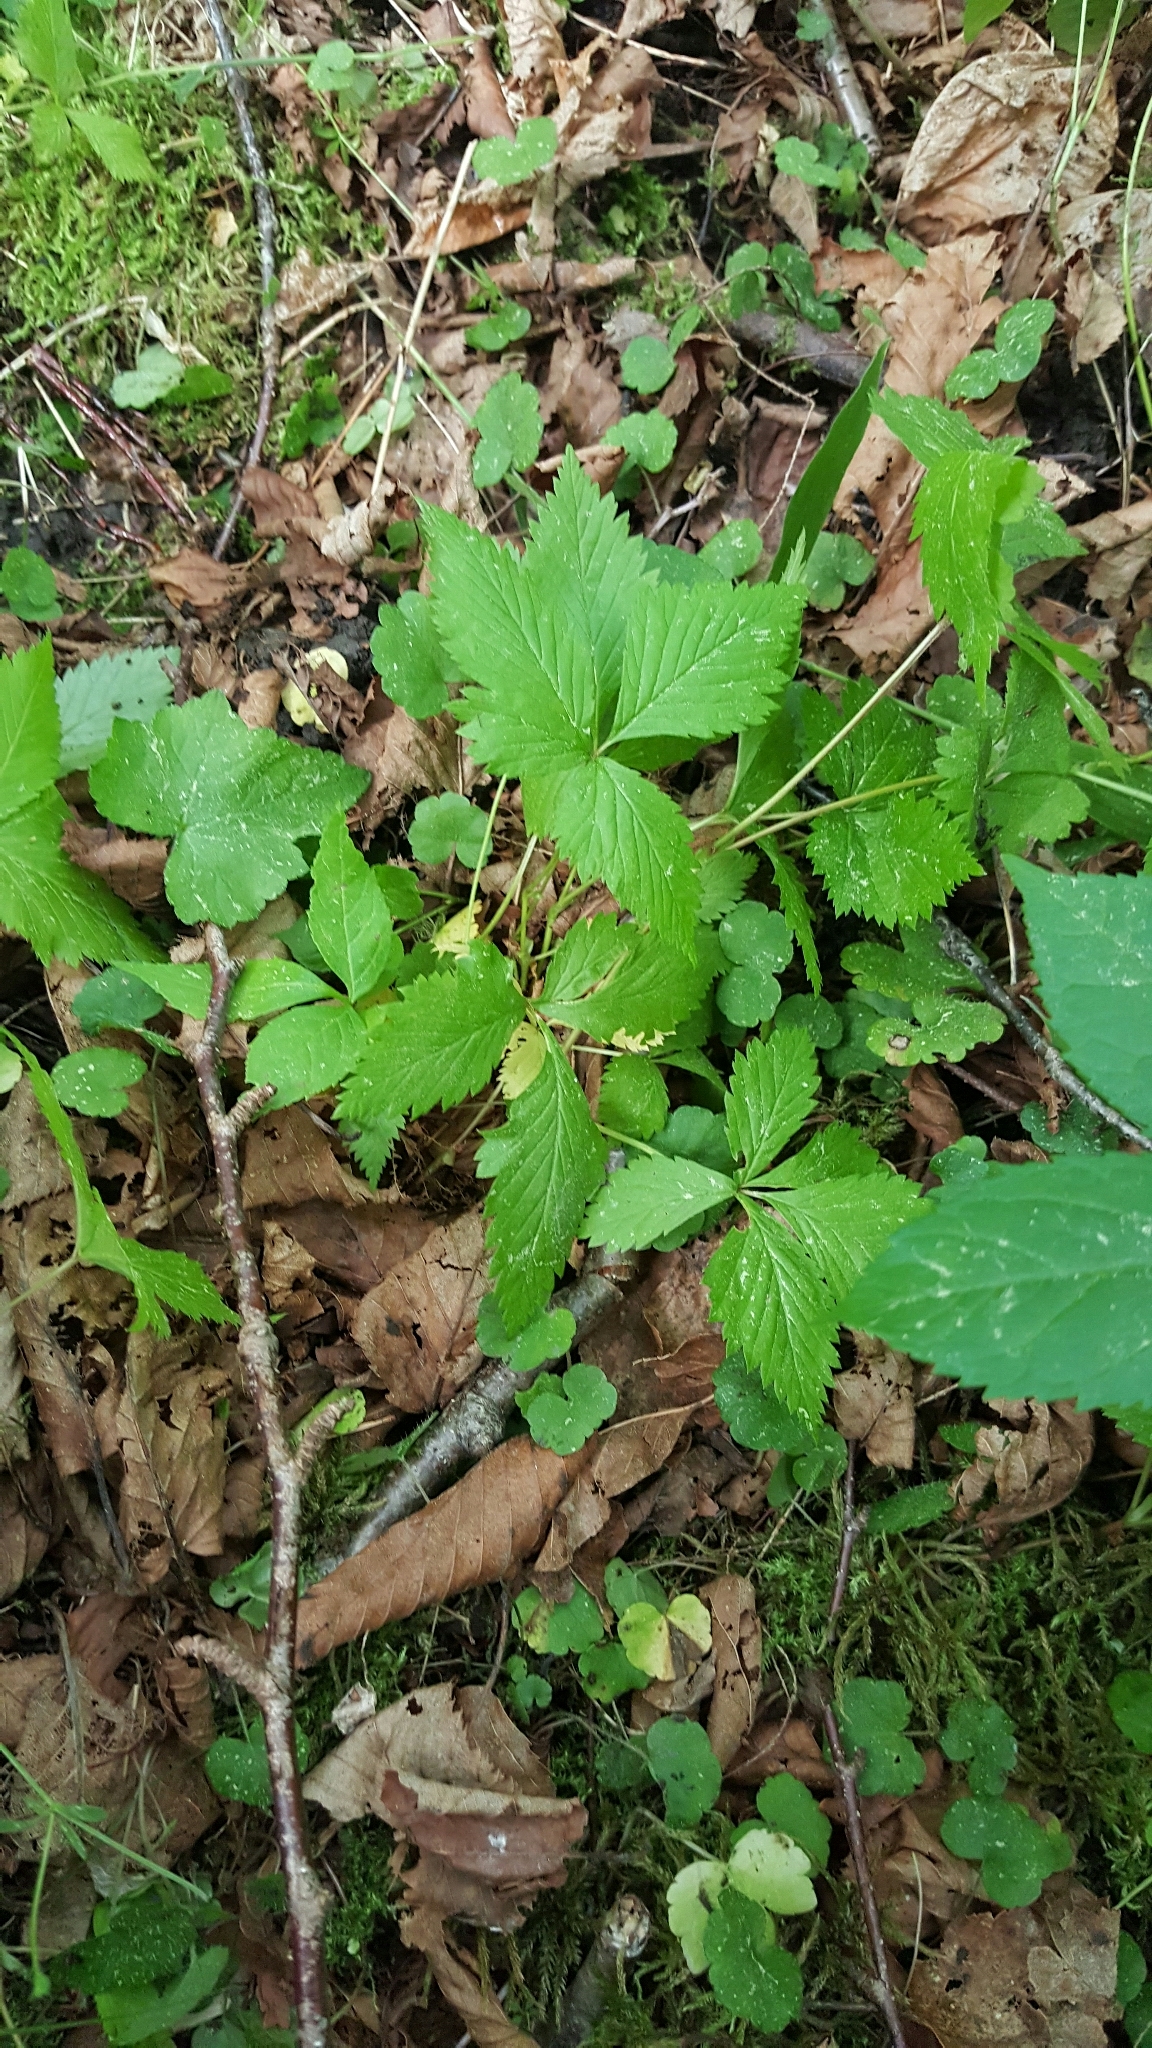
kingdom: Plantae
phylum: Tracheophyta
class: Magnoliopsida
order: Rosales
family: Rosaceae
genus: Rubus
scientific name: Rubus pubescens
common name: Dwarf raspberry
